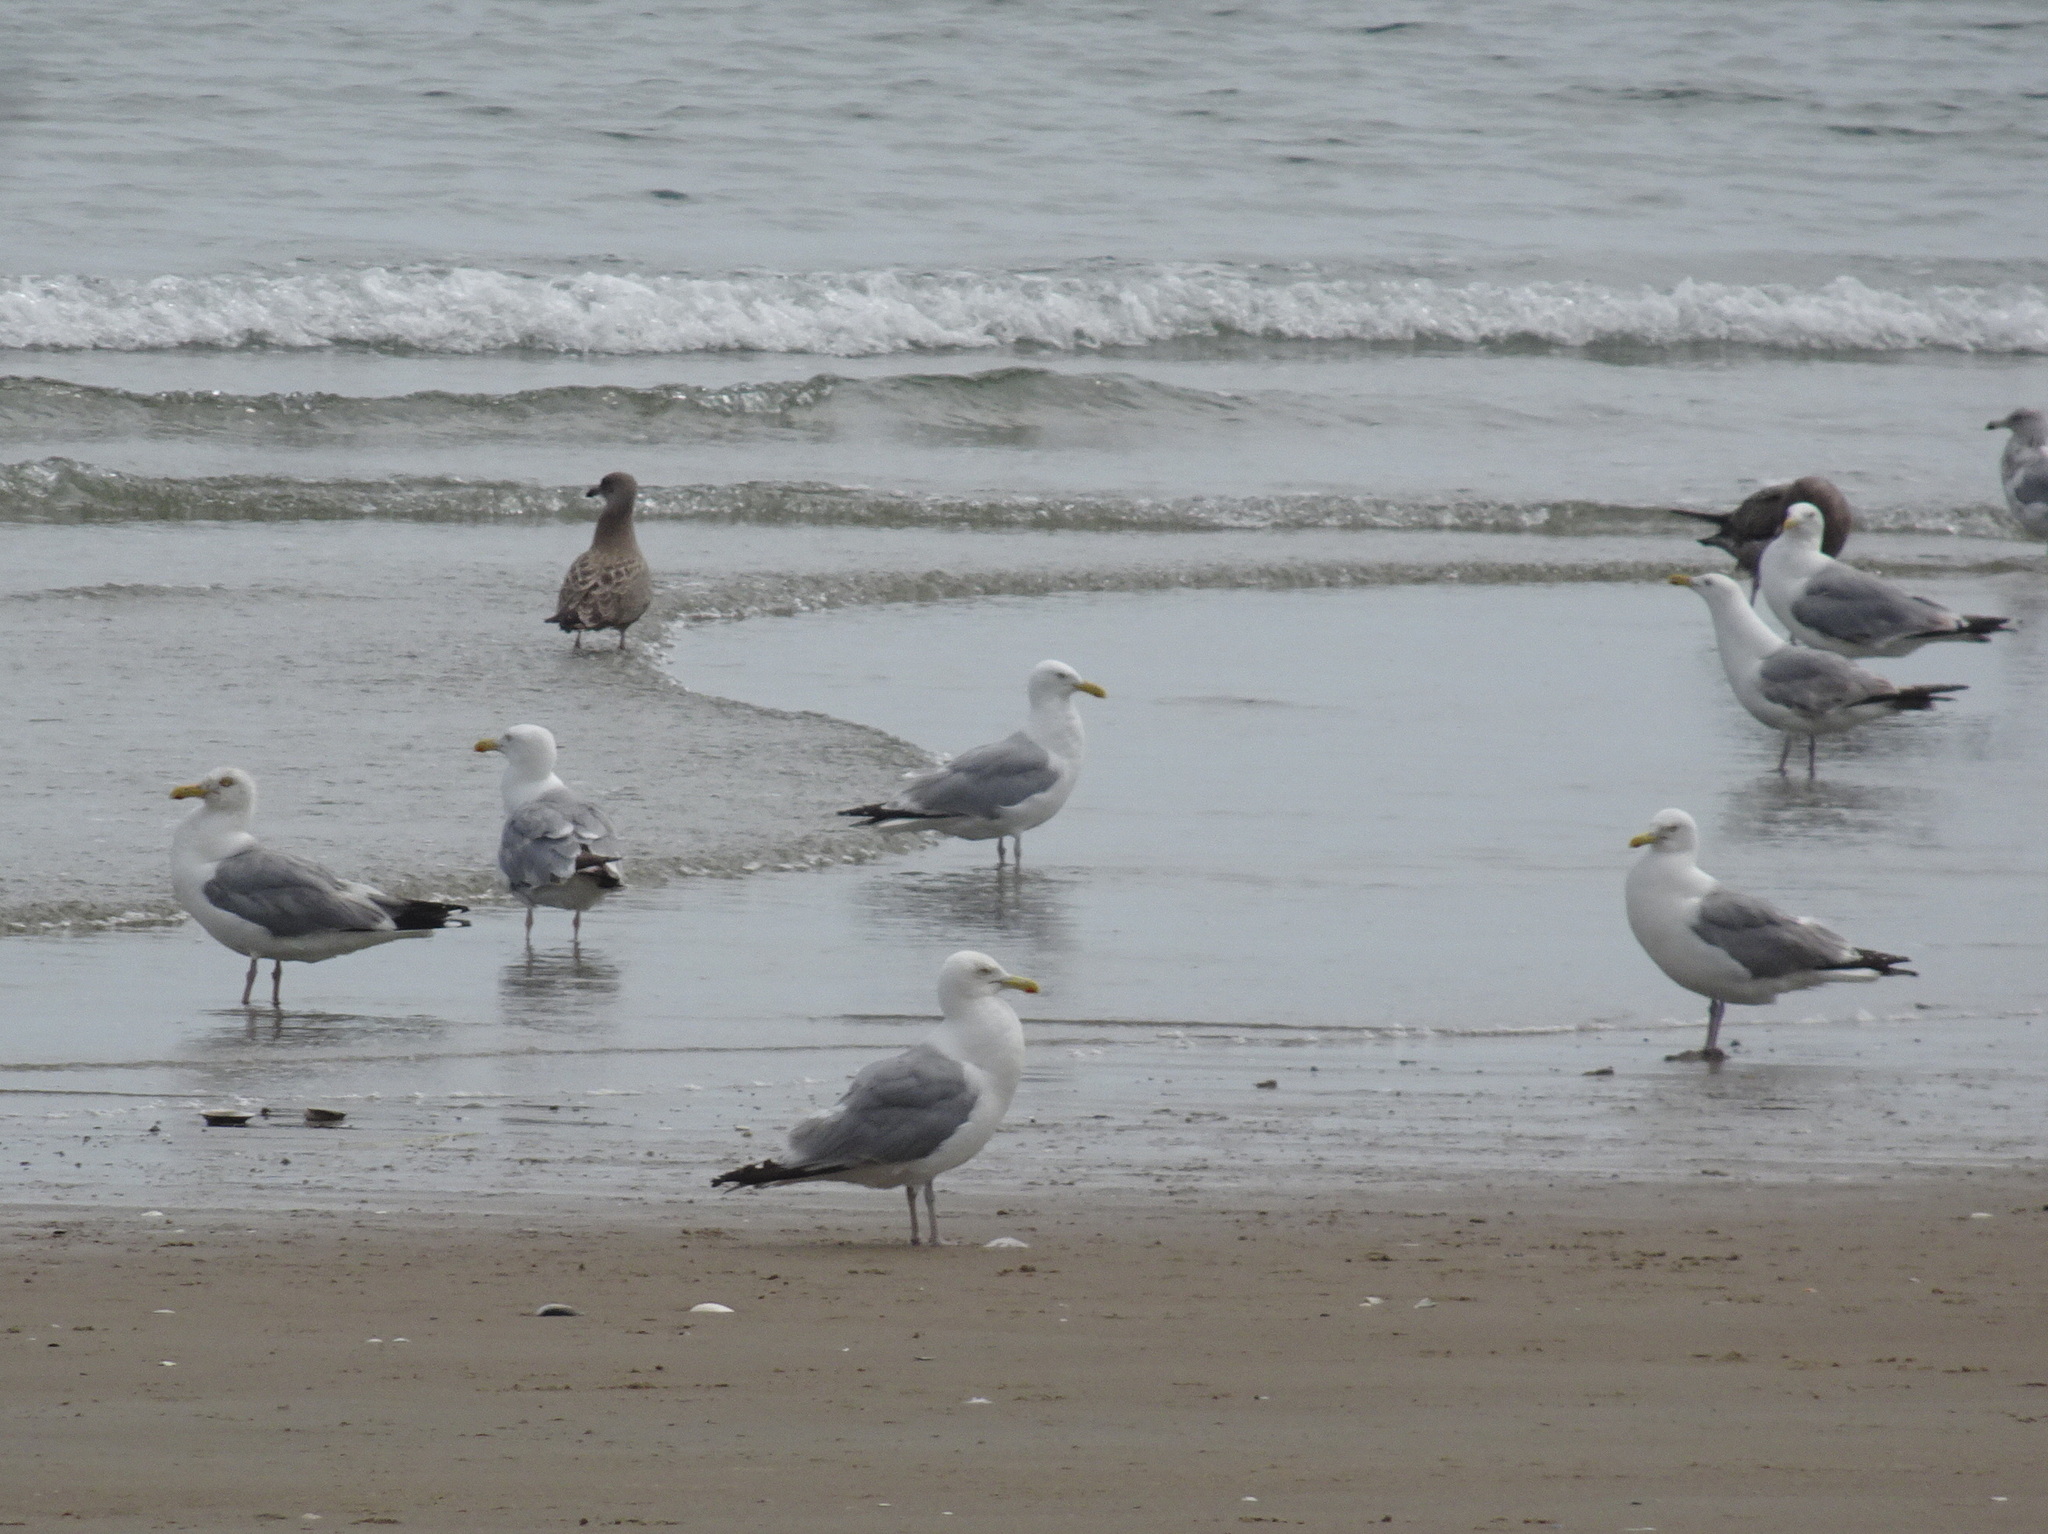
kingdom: Animalia
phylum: Chordata
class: Aves
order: Charadriiformes
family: Laridae
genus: Larus
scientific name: Larus argentatus
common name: Herring gull
